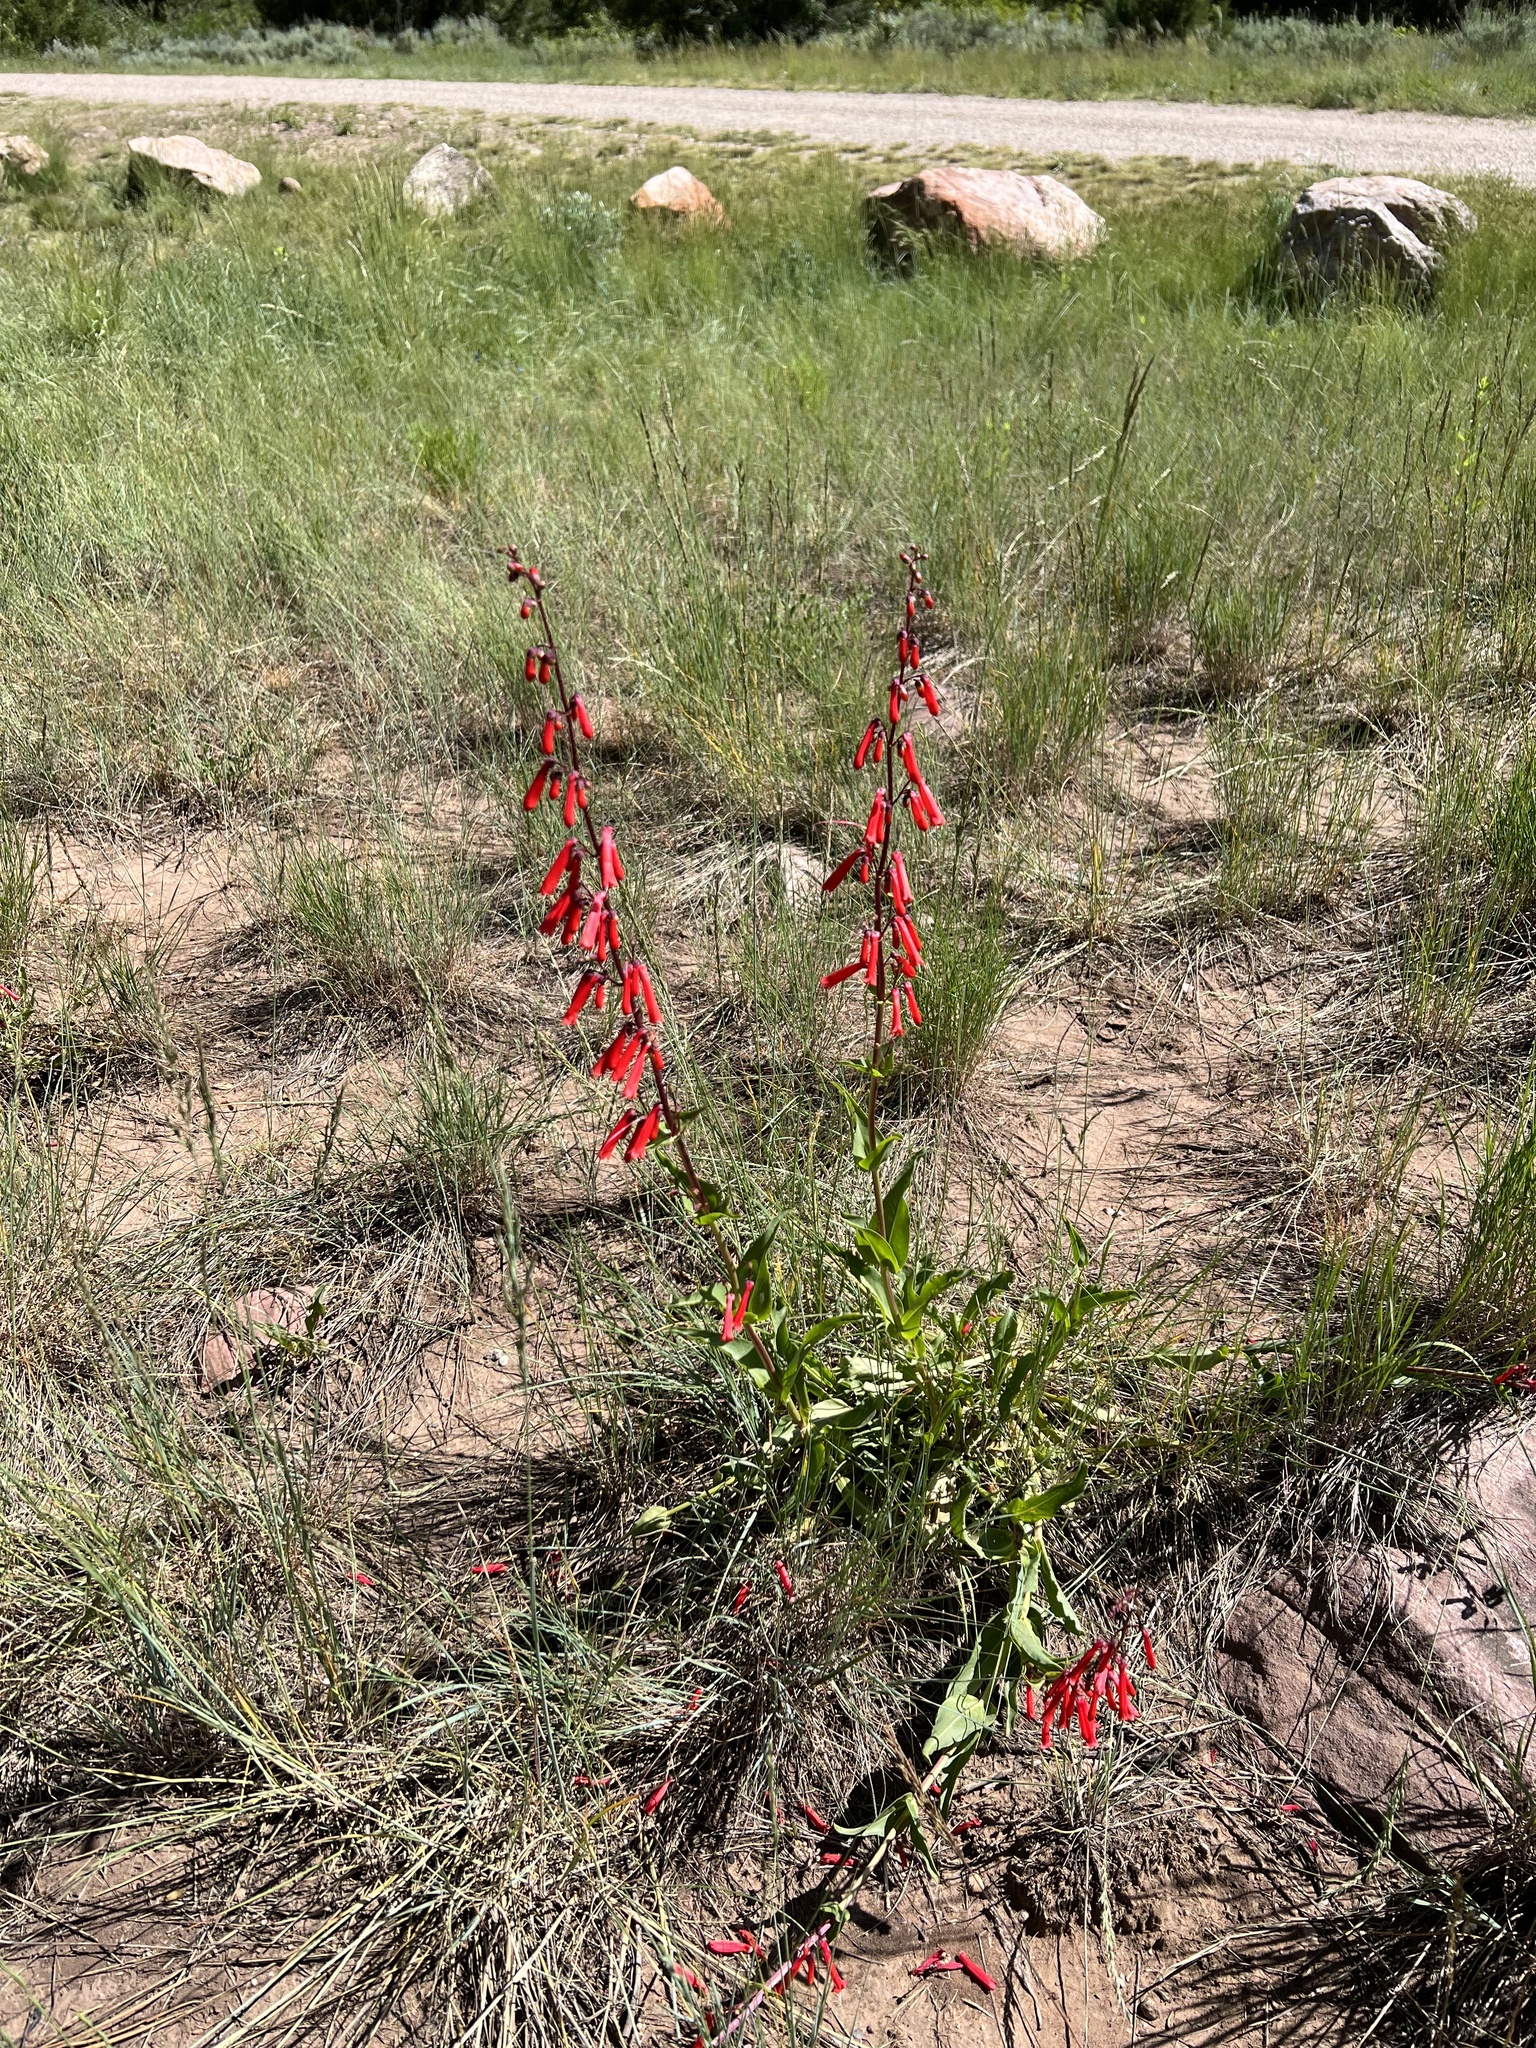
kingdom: Plantae
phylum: Tracheophyta
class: Magnoliopsida
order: Lamiales
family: Plantaginaceae
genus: Penstemon
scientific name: Penstemon eatonii
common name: Eaton's penstemon
